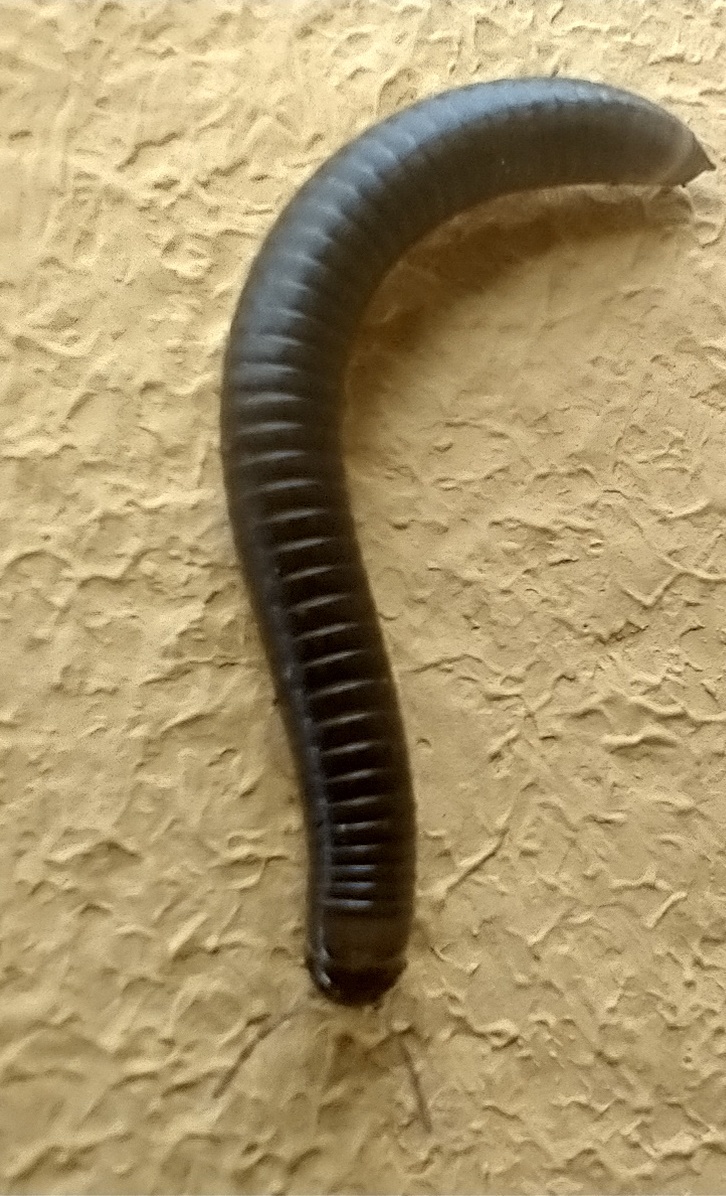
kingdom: Animalia
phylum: Arthropoda
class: Diplopoda
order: Julida
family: Julidae
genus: Ommatoiulus
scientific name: Ommatoiulus moreleti
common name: Portuguese millipede
